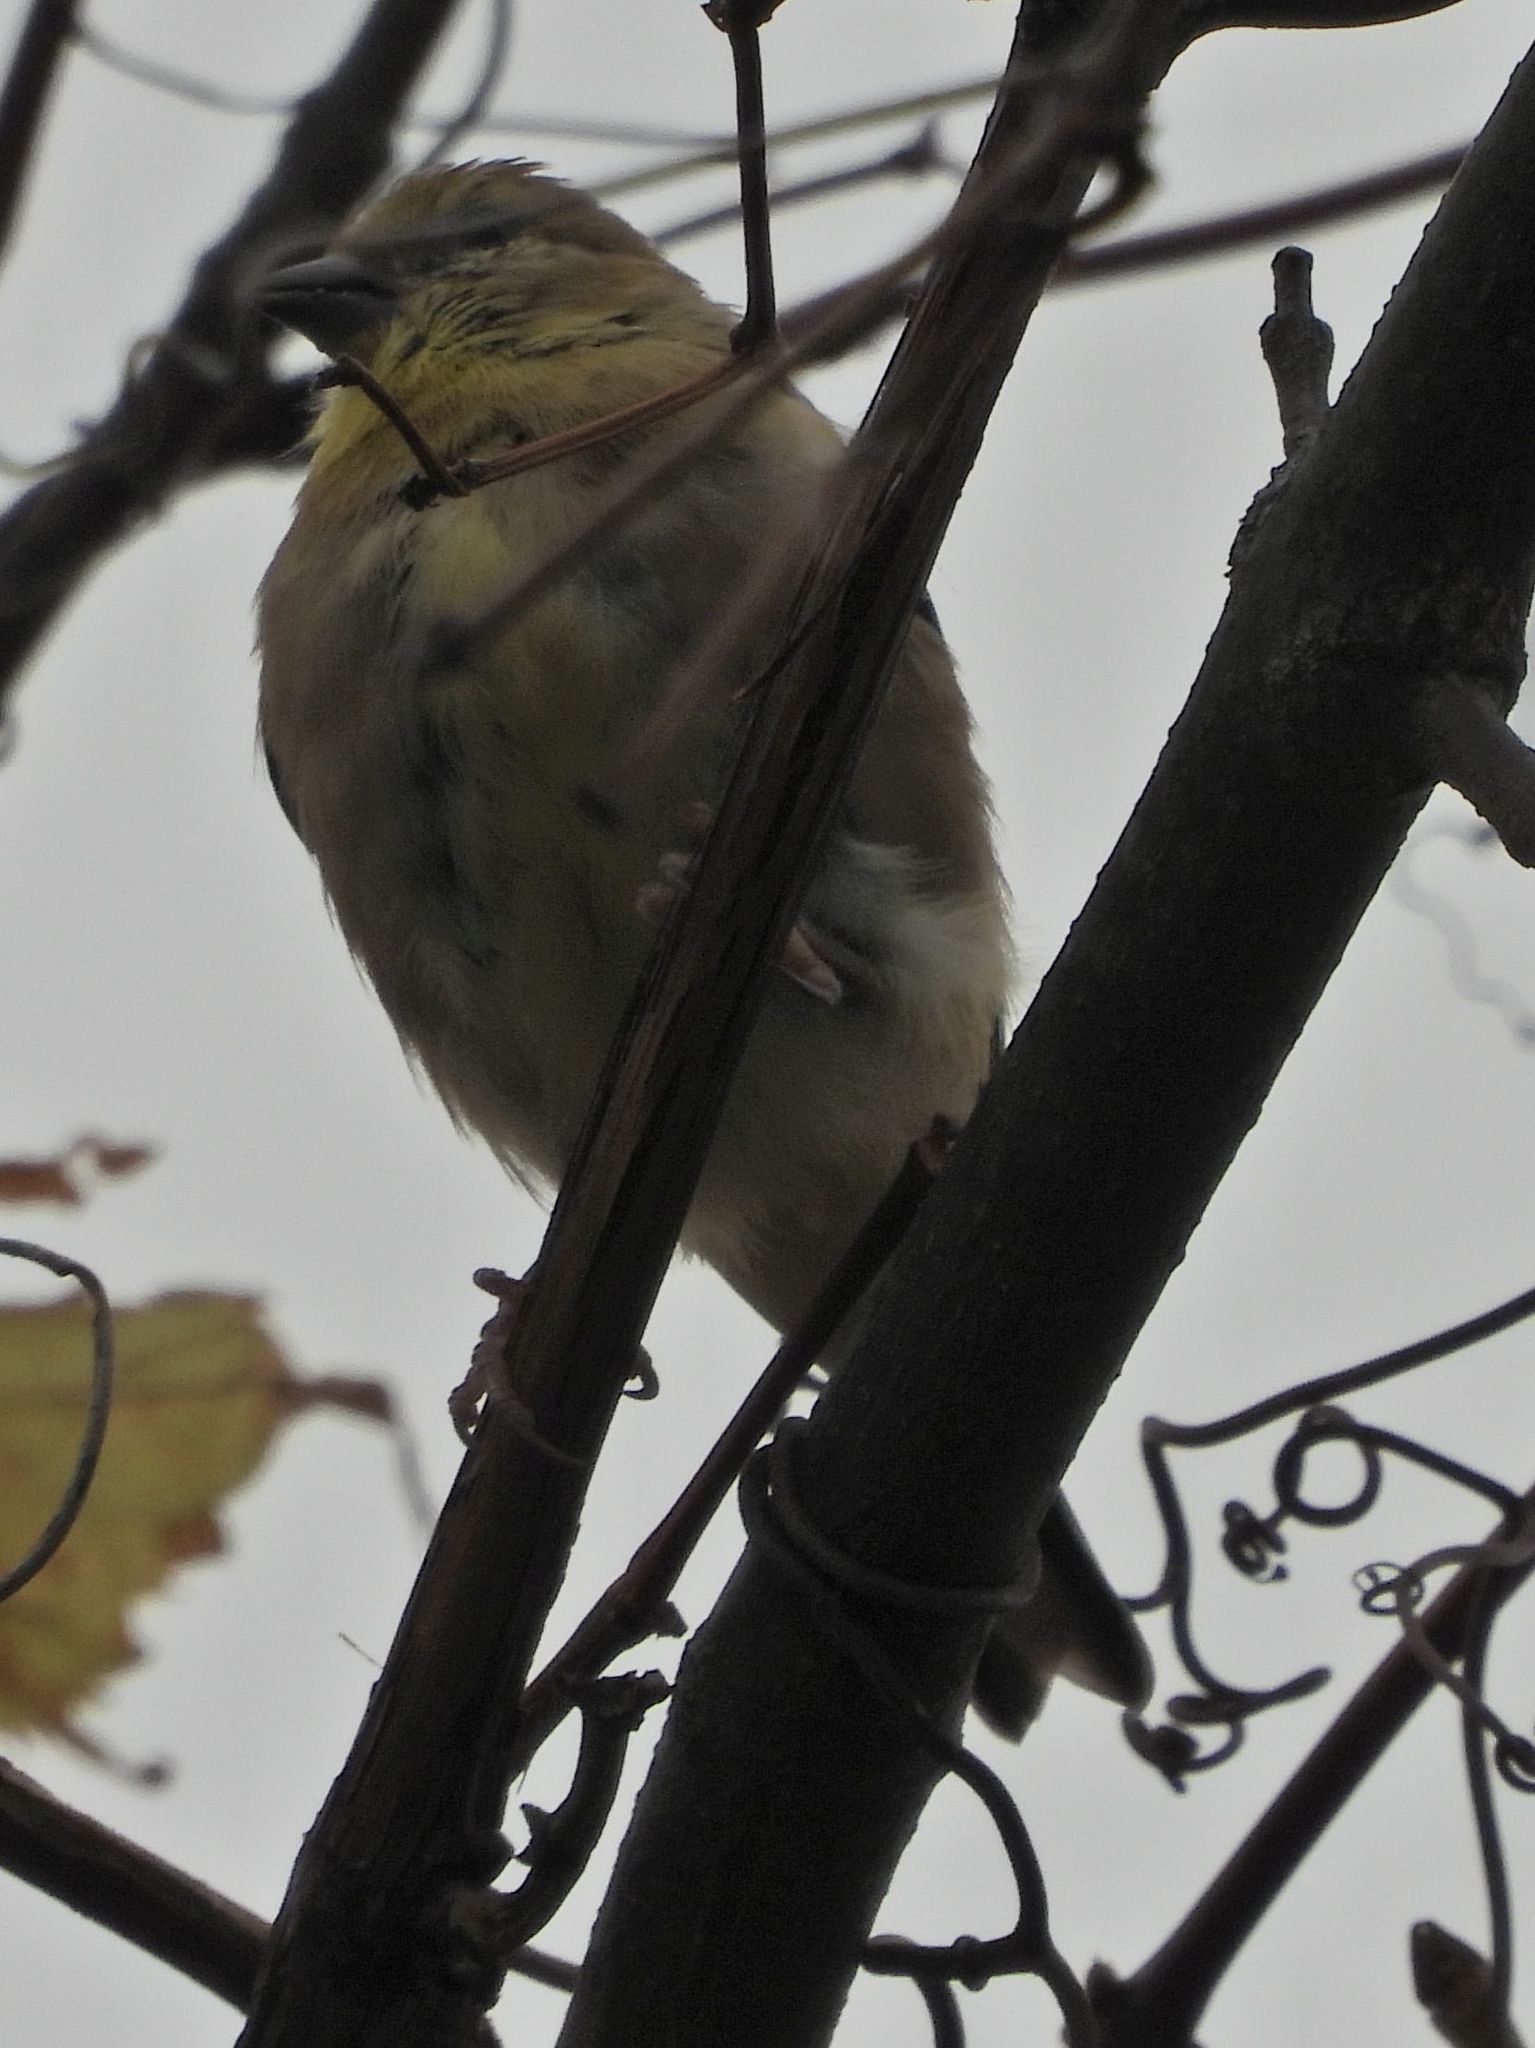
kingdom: Animalia
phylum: Chordata
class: Aves
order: Passeriformes
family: Fringillidae
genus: Spinus
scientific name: Spinus tristis
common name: American goldfinch
